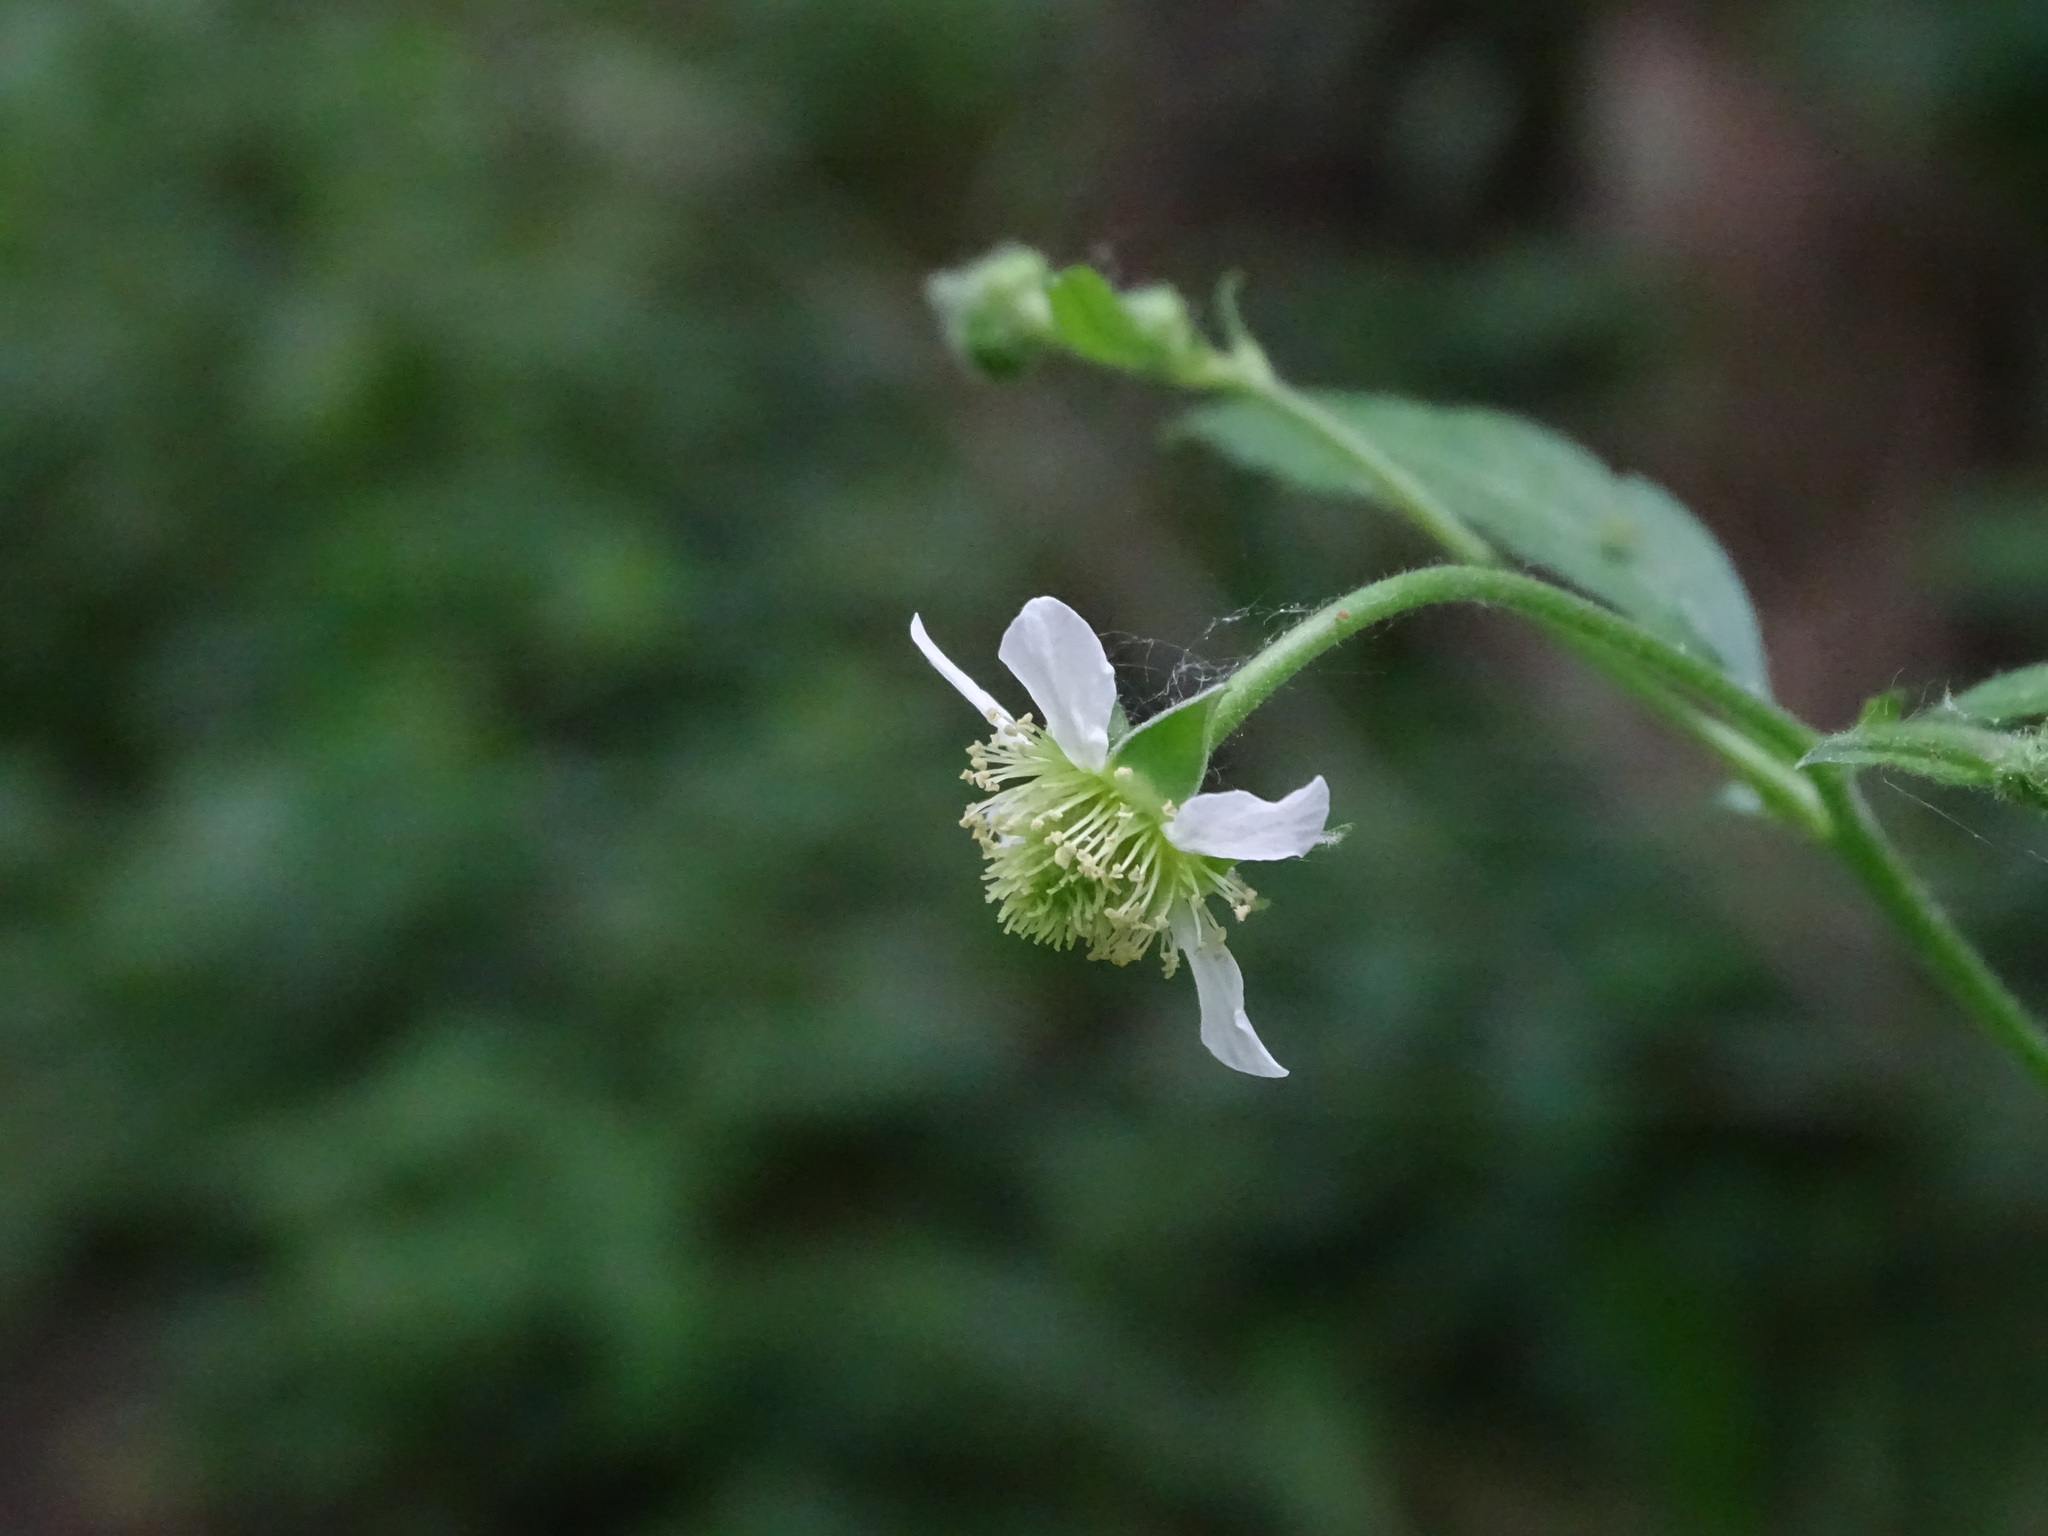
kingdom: Plantae
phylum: Tracheophyta
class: Magnoliopsida
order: Rosales
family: Rosaceae
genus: Geum
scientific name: Geum canadense
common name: White avens
